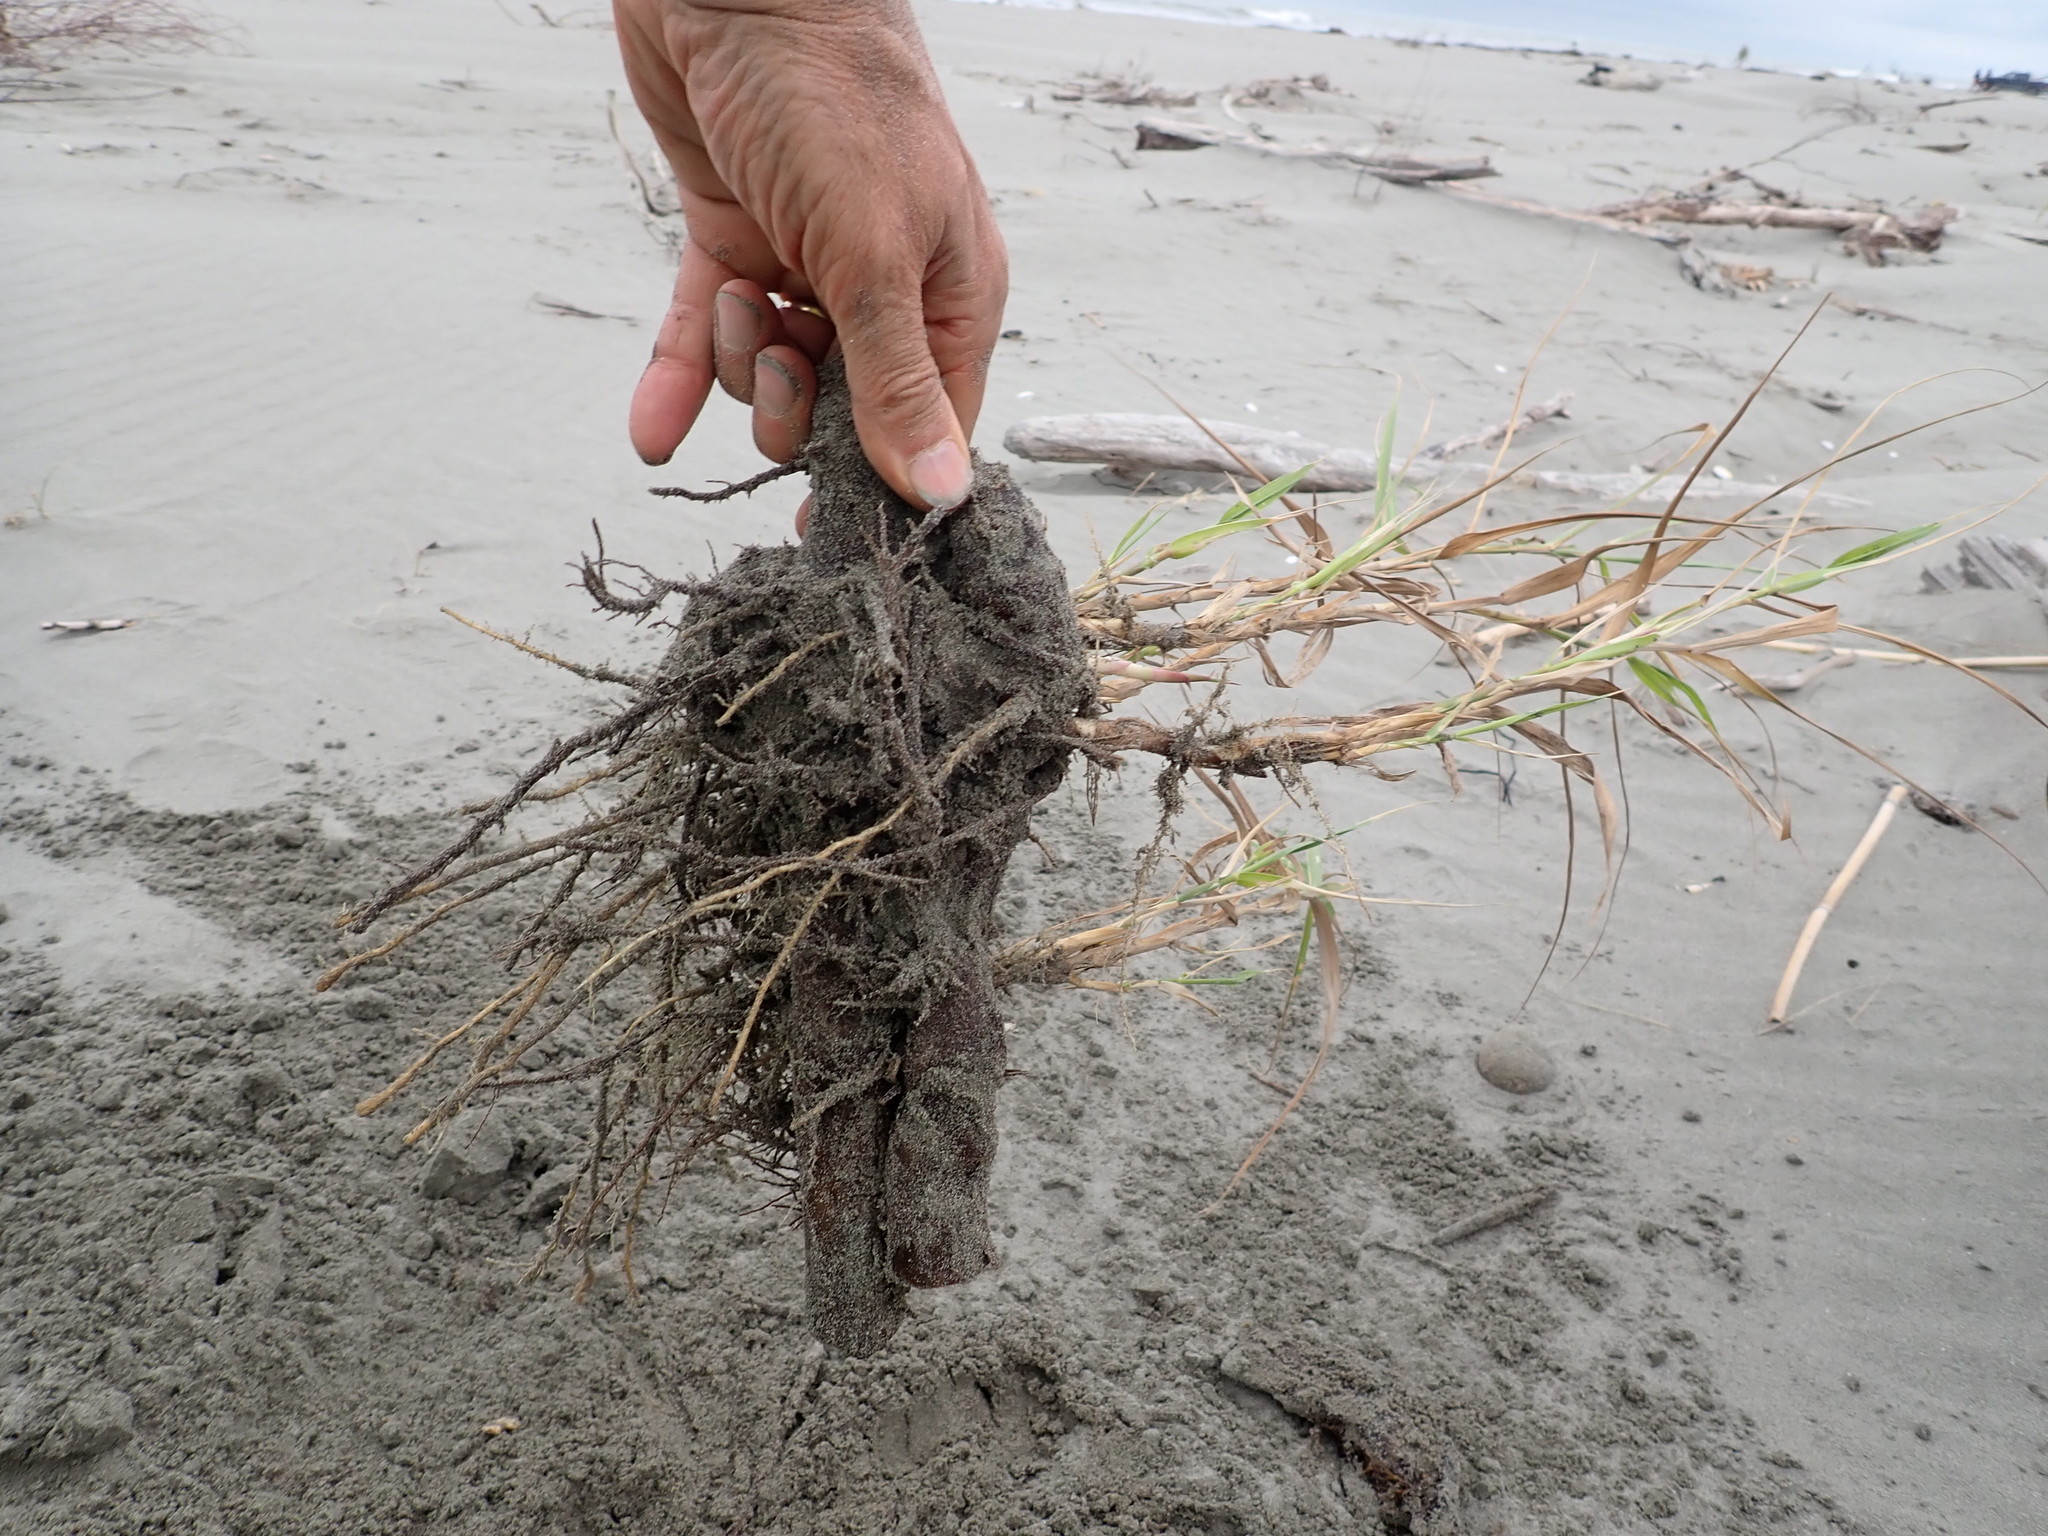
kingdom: Plantae
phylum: Tracheophyta
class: Liliopsida
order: Poales
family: Poaceae
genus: Phragmites
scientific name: Phragmites karka
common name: Tropical reed
